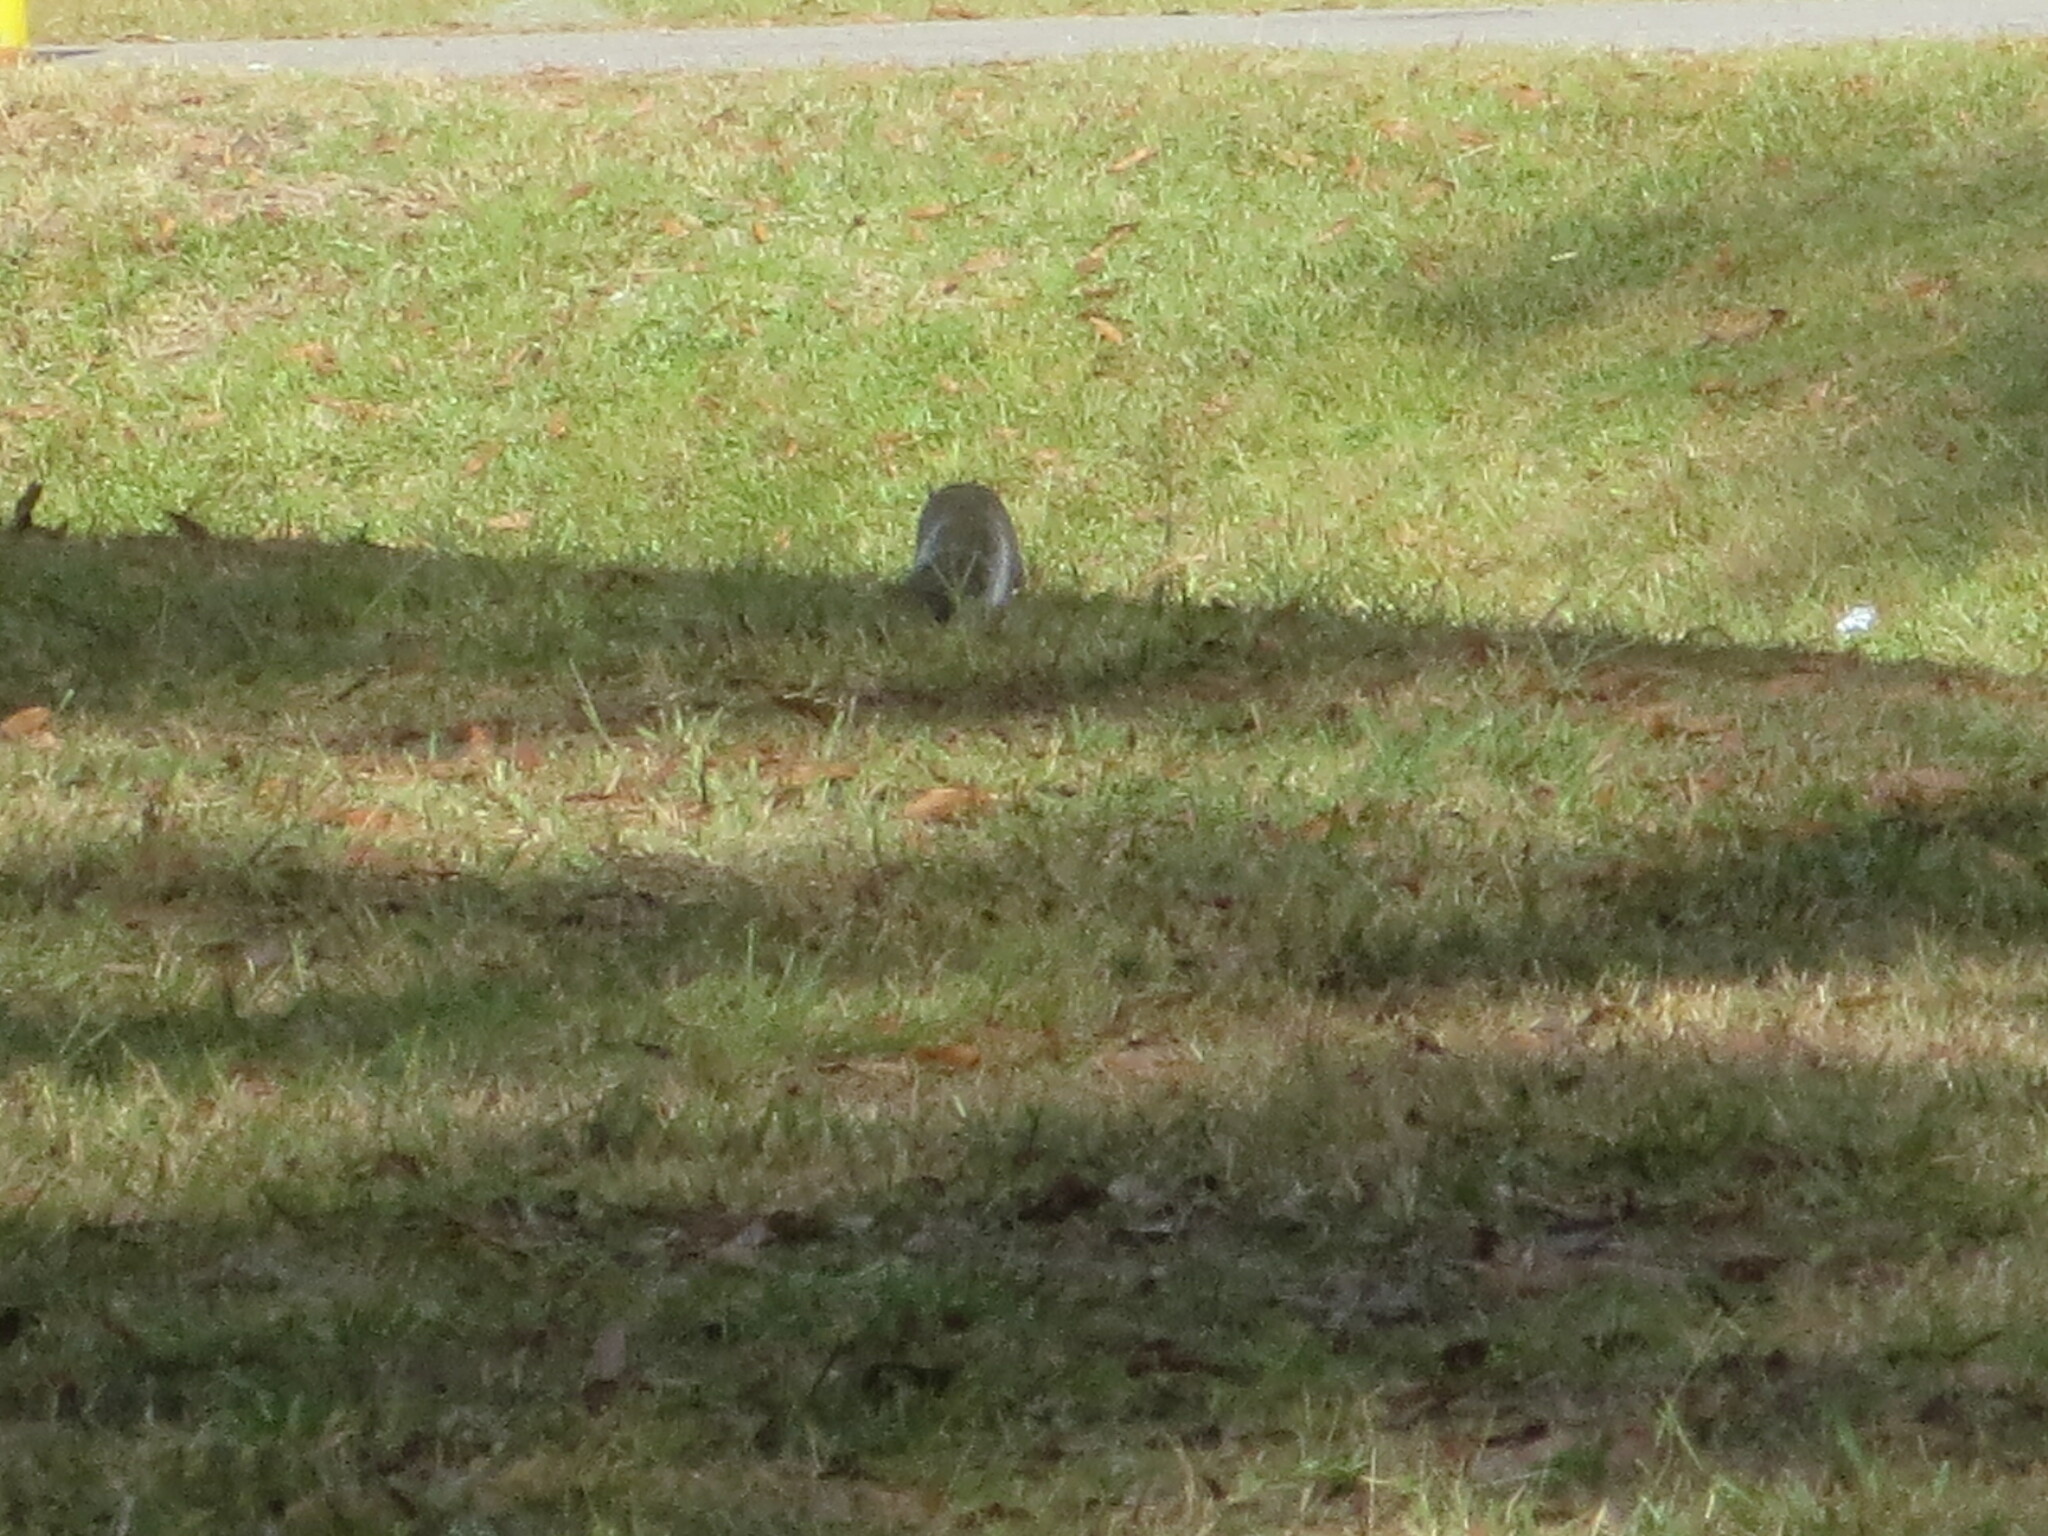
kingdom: Animalia
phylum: Chordata
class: Mammalia
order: Rodentia
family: Sciuridae
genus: Sciurus
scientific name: Sciurus carolinensis
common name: Eastern gray squirrel
